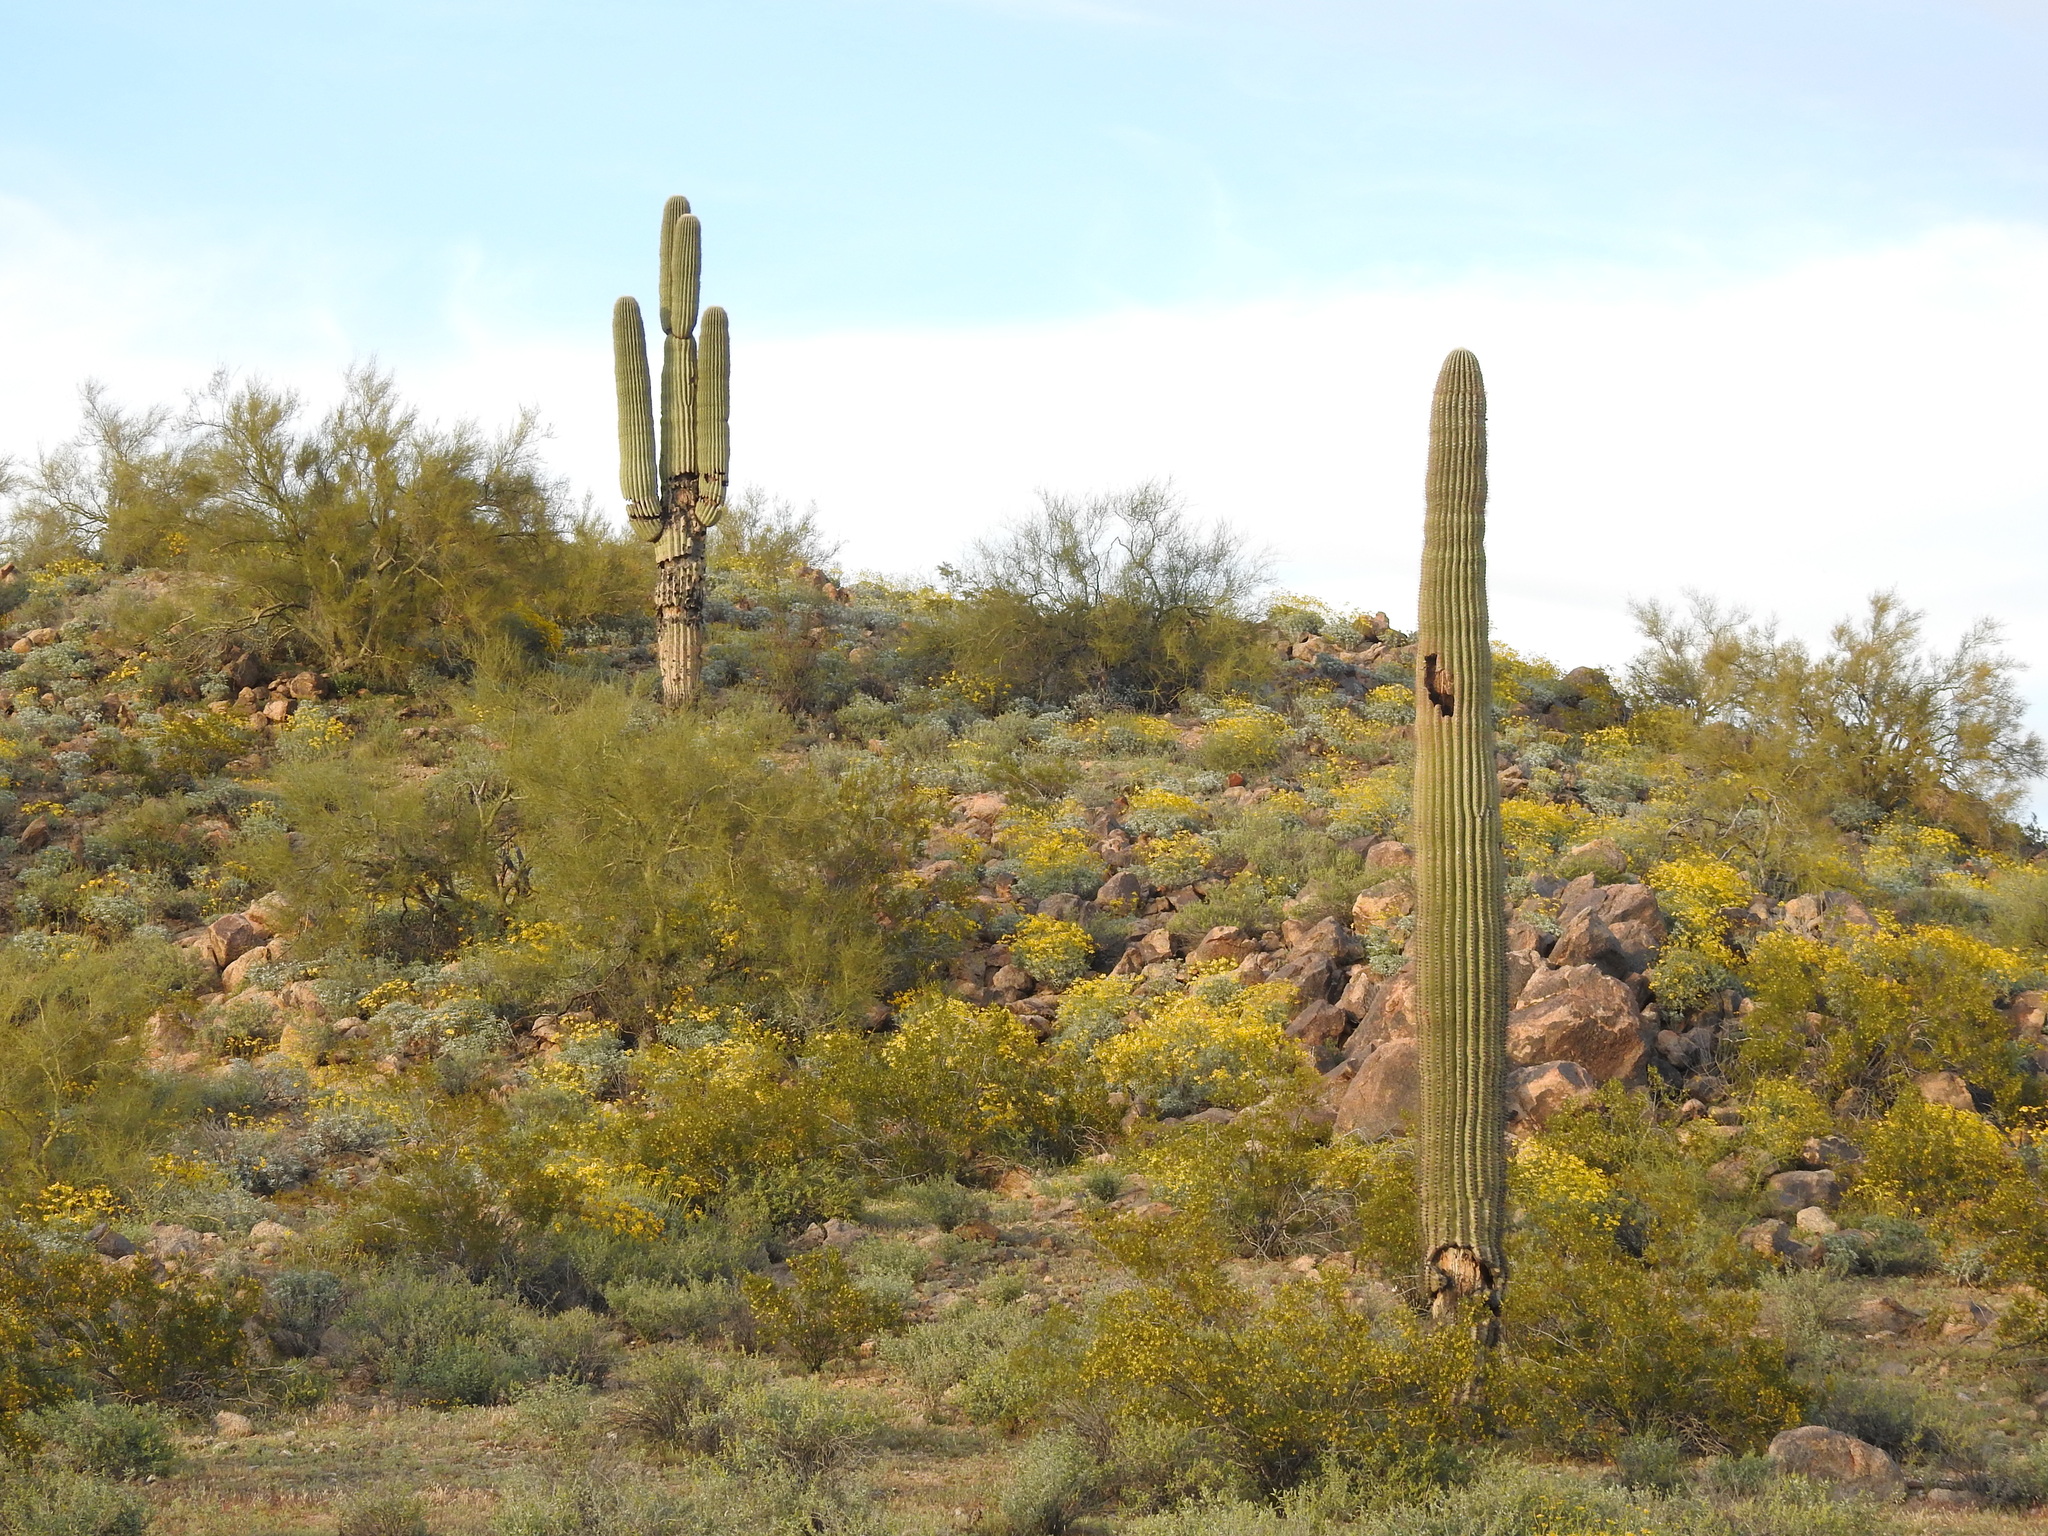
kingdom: Plantae
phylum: Tracheophyta
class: Magnoliopsida
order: Caryophyllales
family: Cactaceae
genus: Carnegiea
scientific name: Carnegiea gigantea
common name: Saguaro
